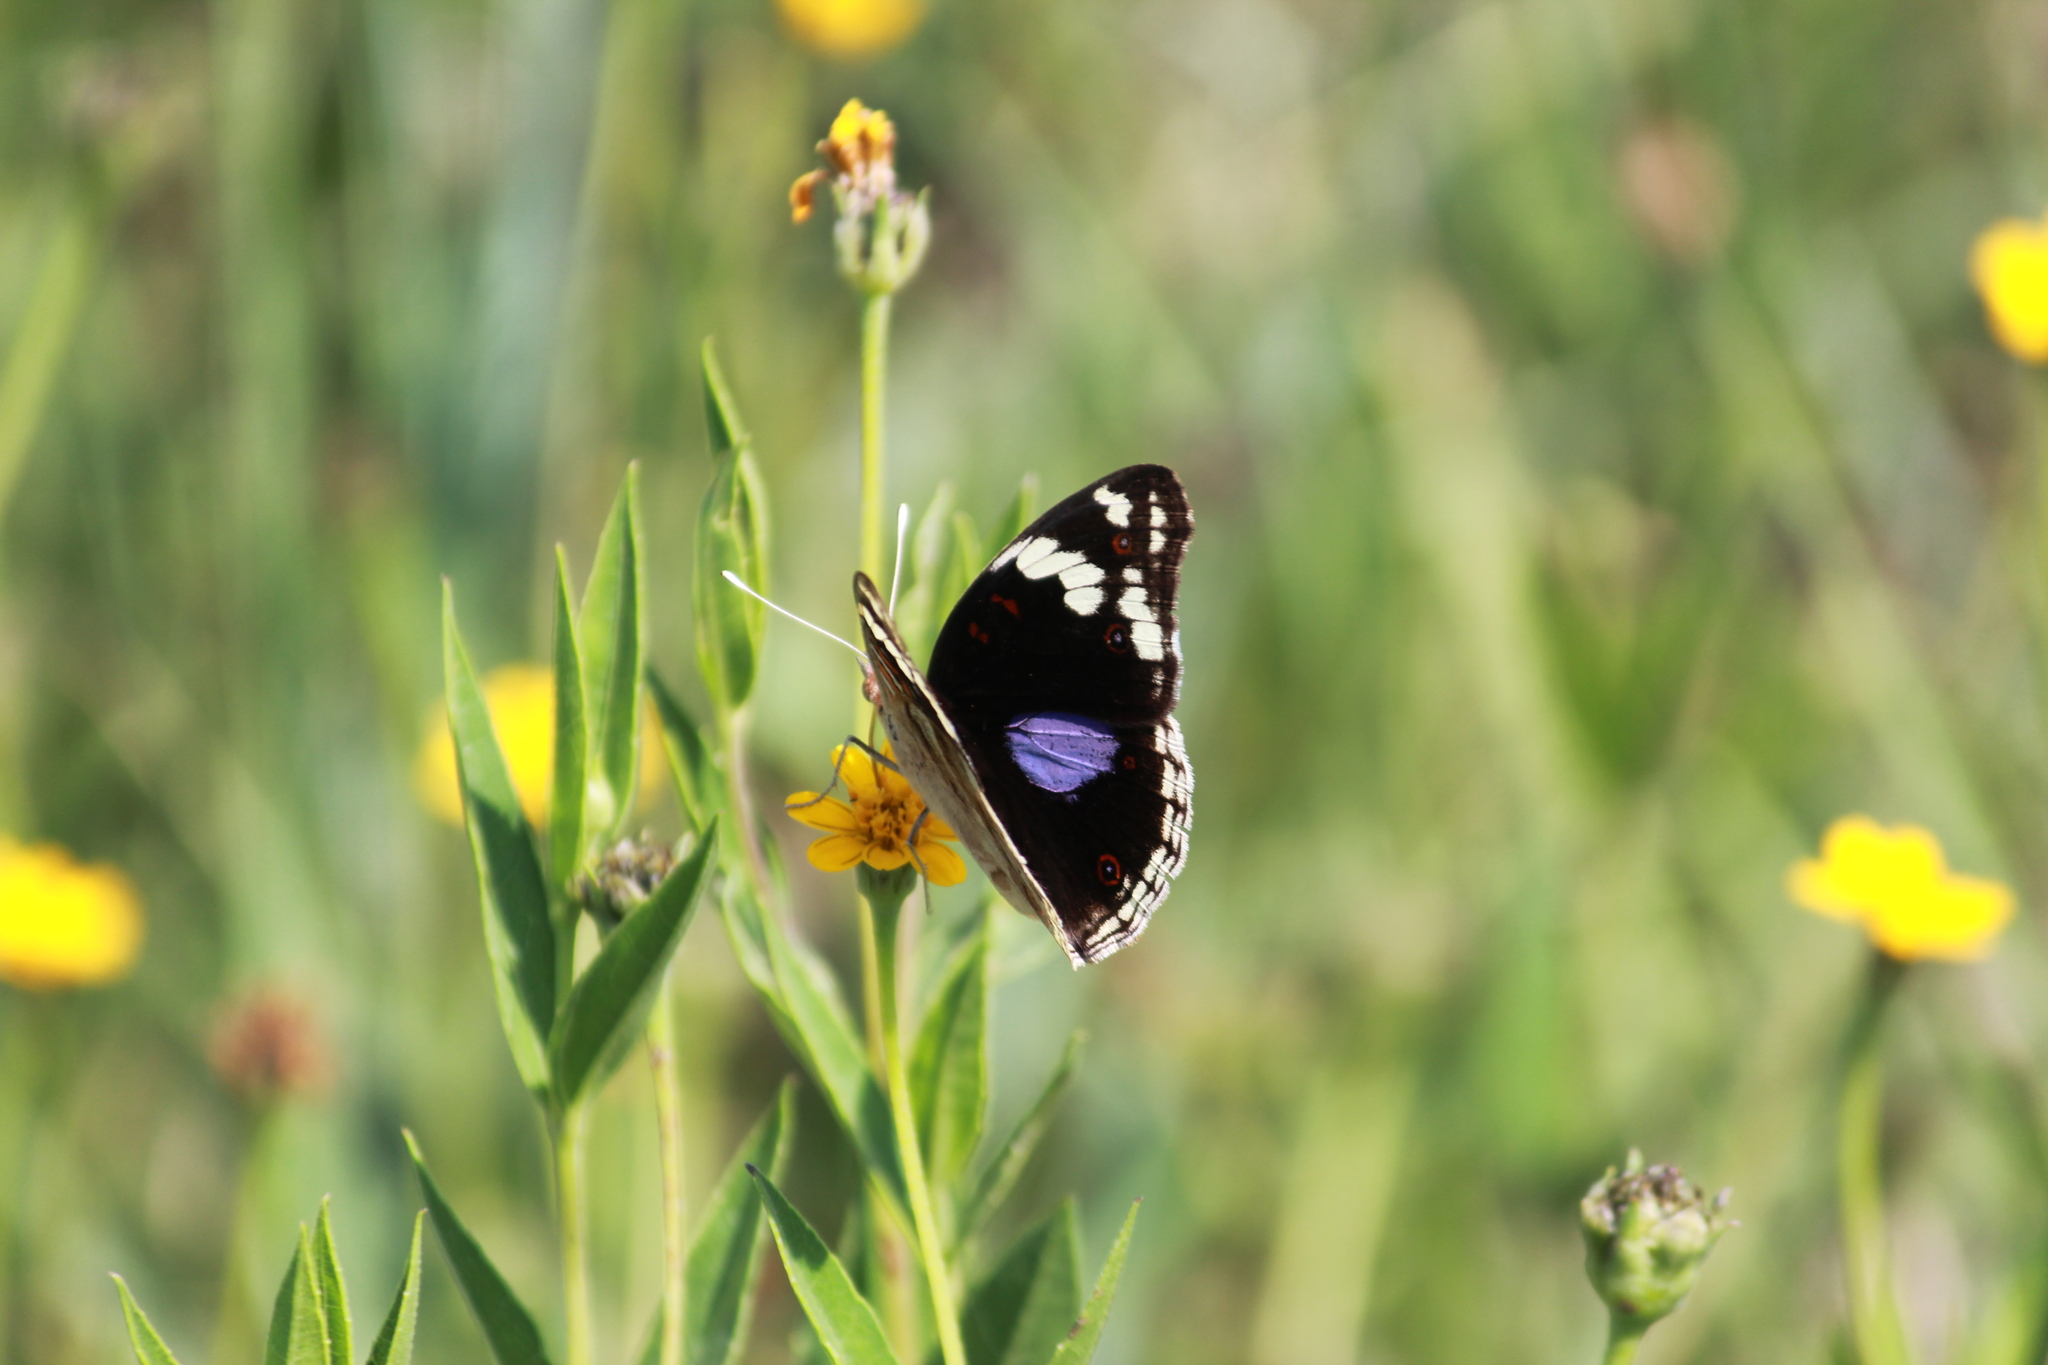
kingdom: Animalia
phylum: Arthropoda
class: Insecta
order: Lepidoptera
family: Nymphalidae
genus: Junonia
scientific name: Junonia oenone
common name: Dark blue pansy
